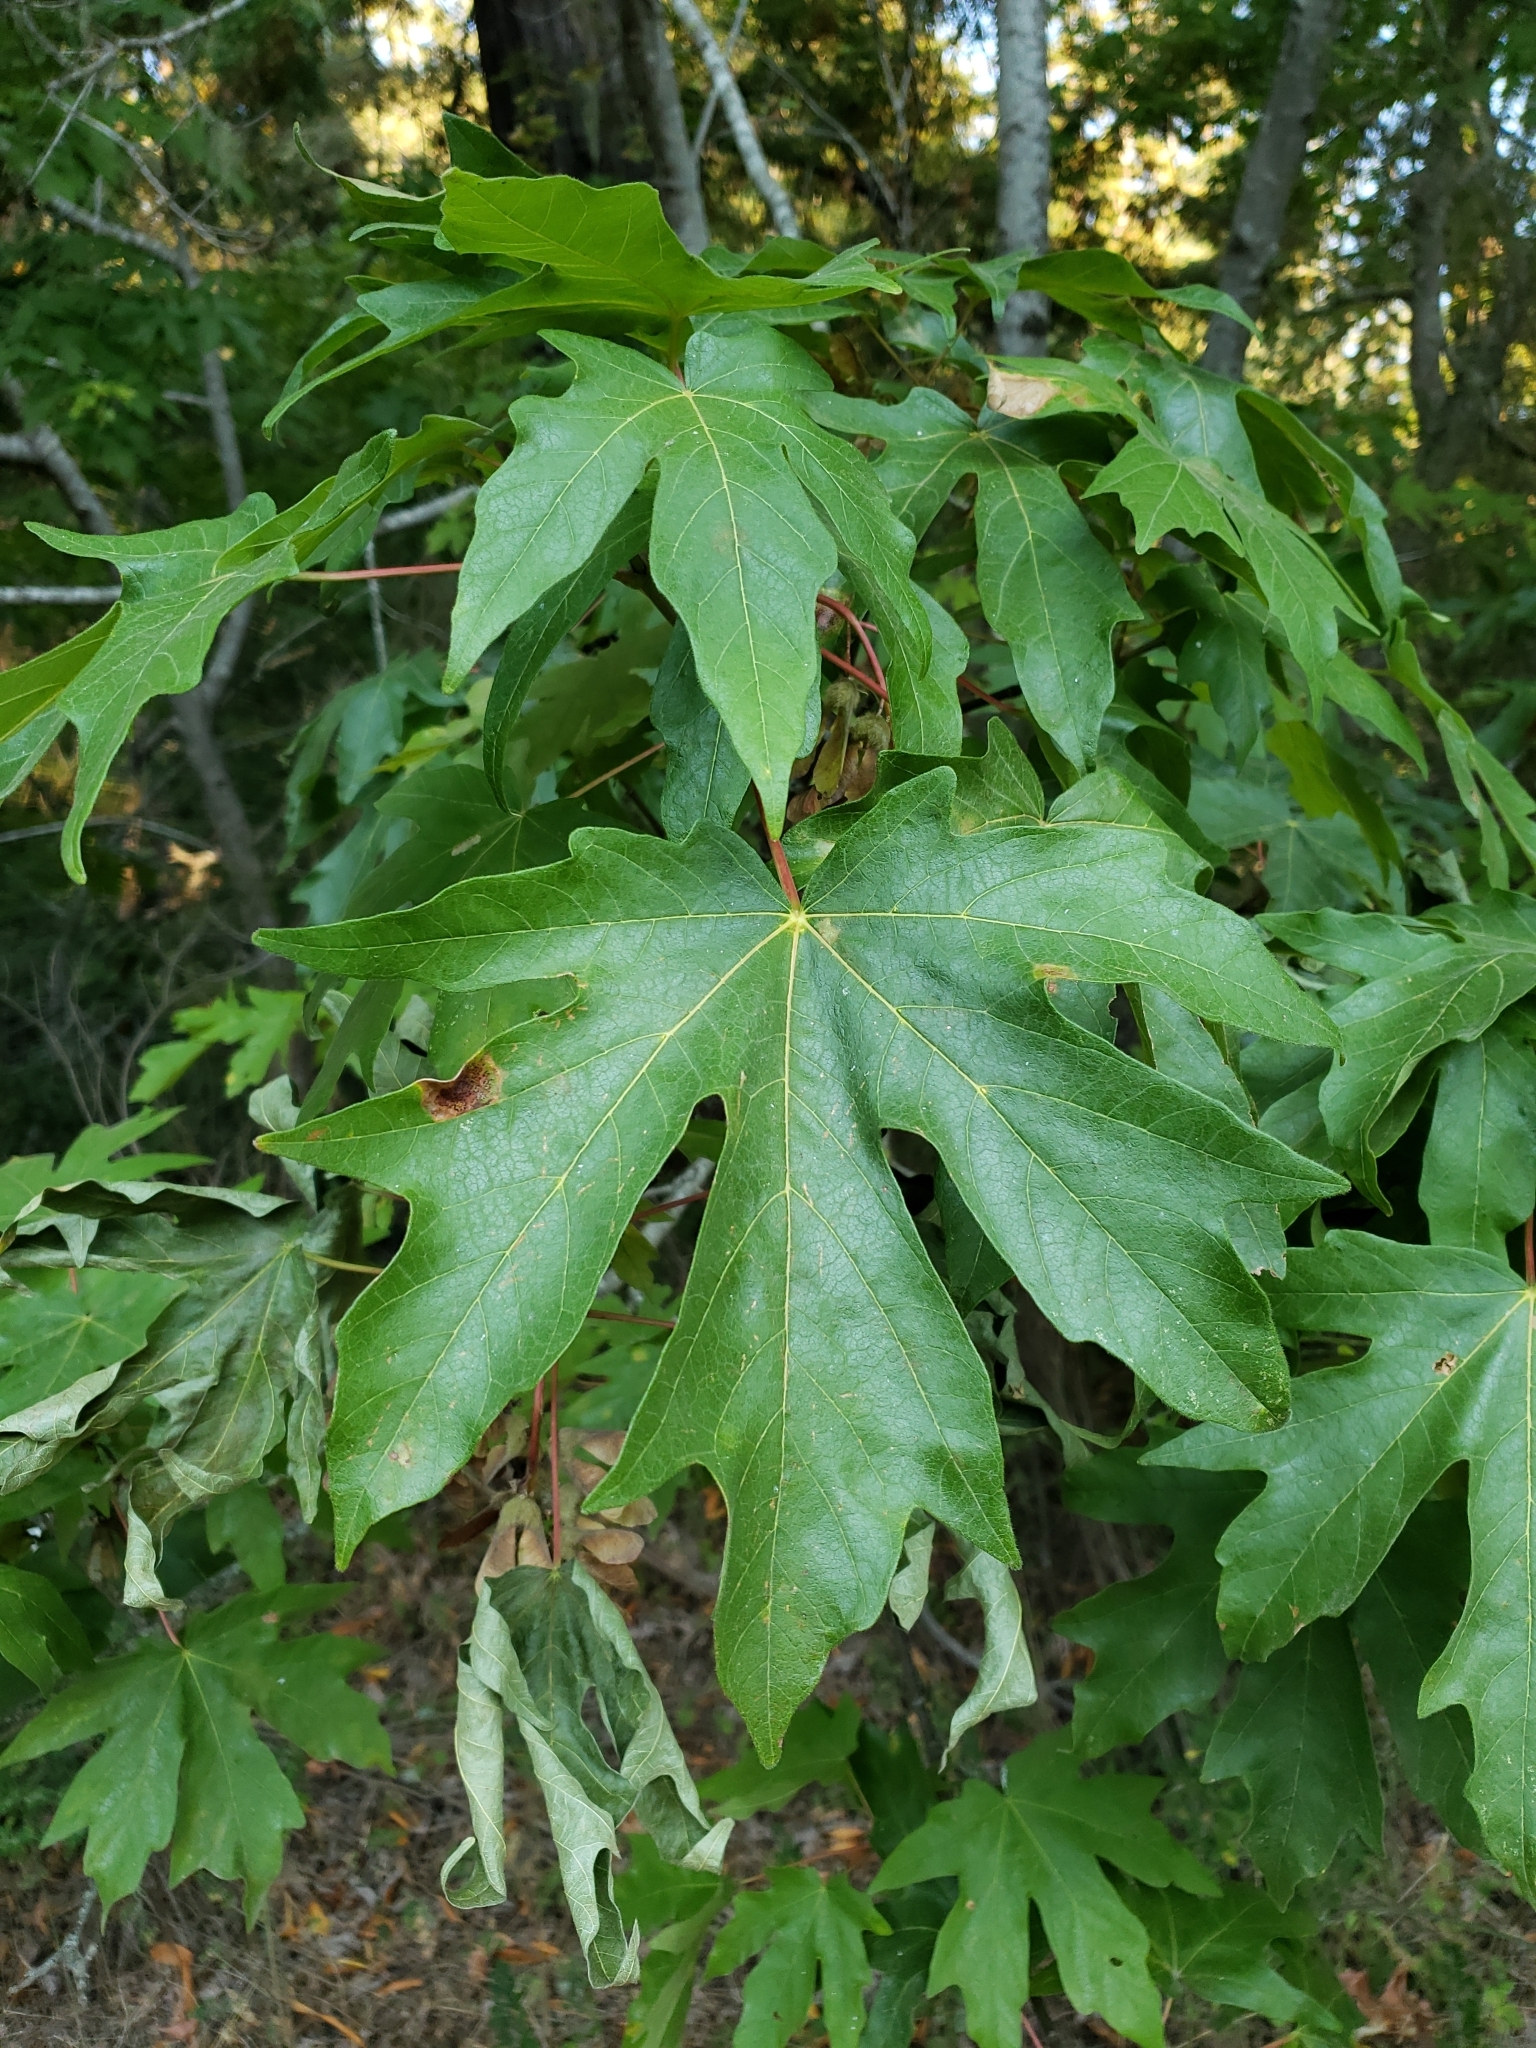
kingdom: Plantae
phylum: Tracheophyta
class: Magnoliopsida
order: Sapindales
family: Sapindaceae
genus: Acer
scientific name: Acer macrophyllum
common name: Oregon maple
